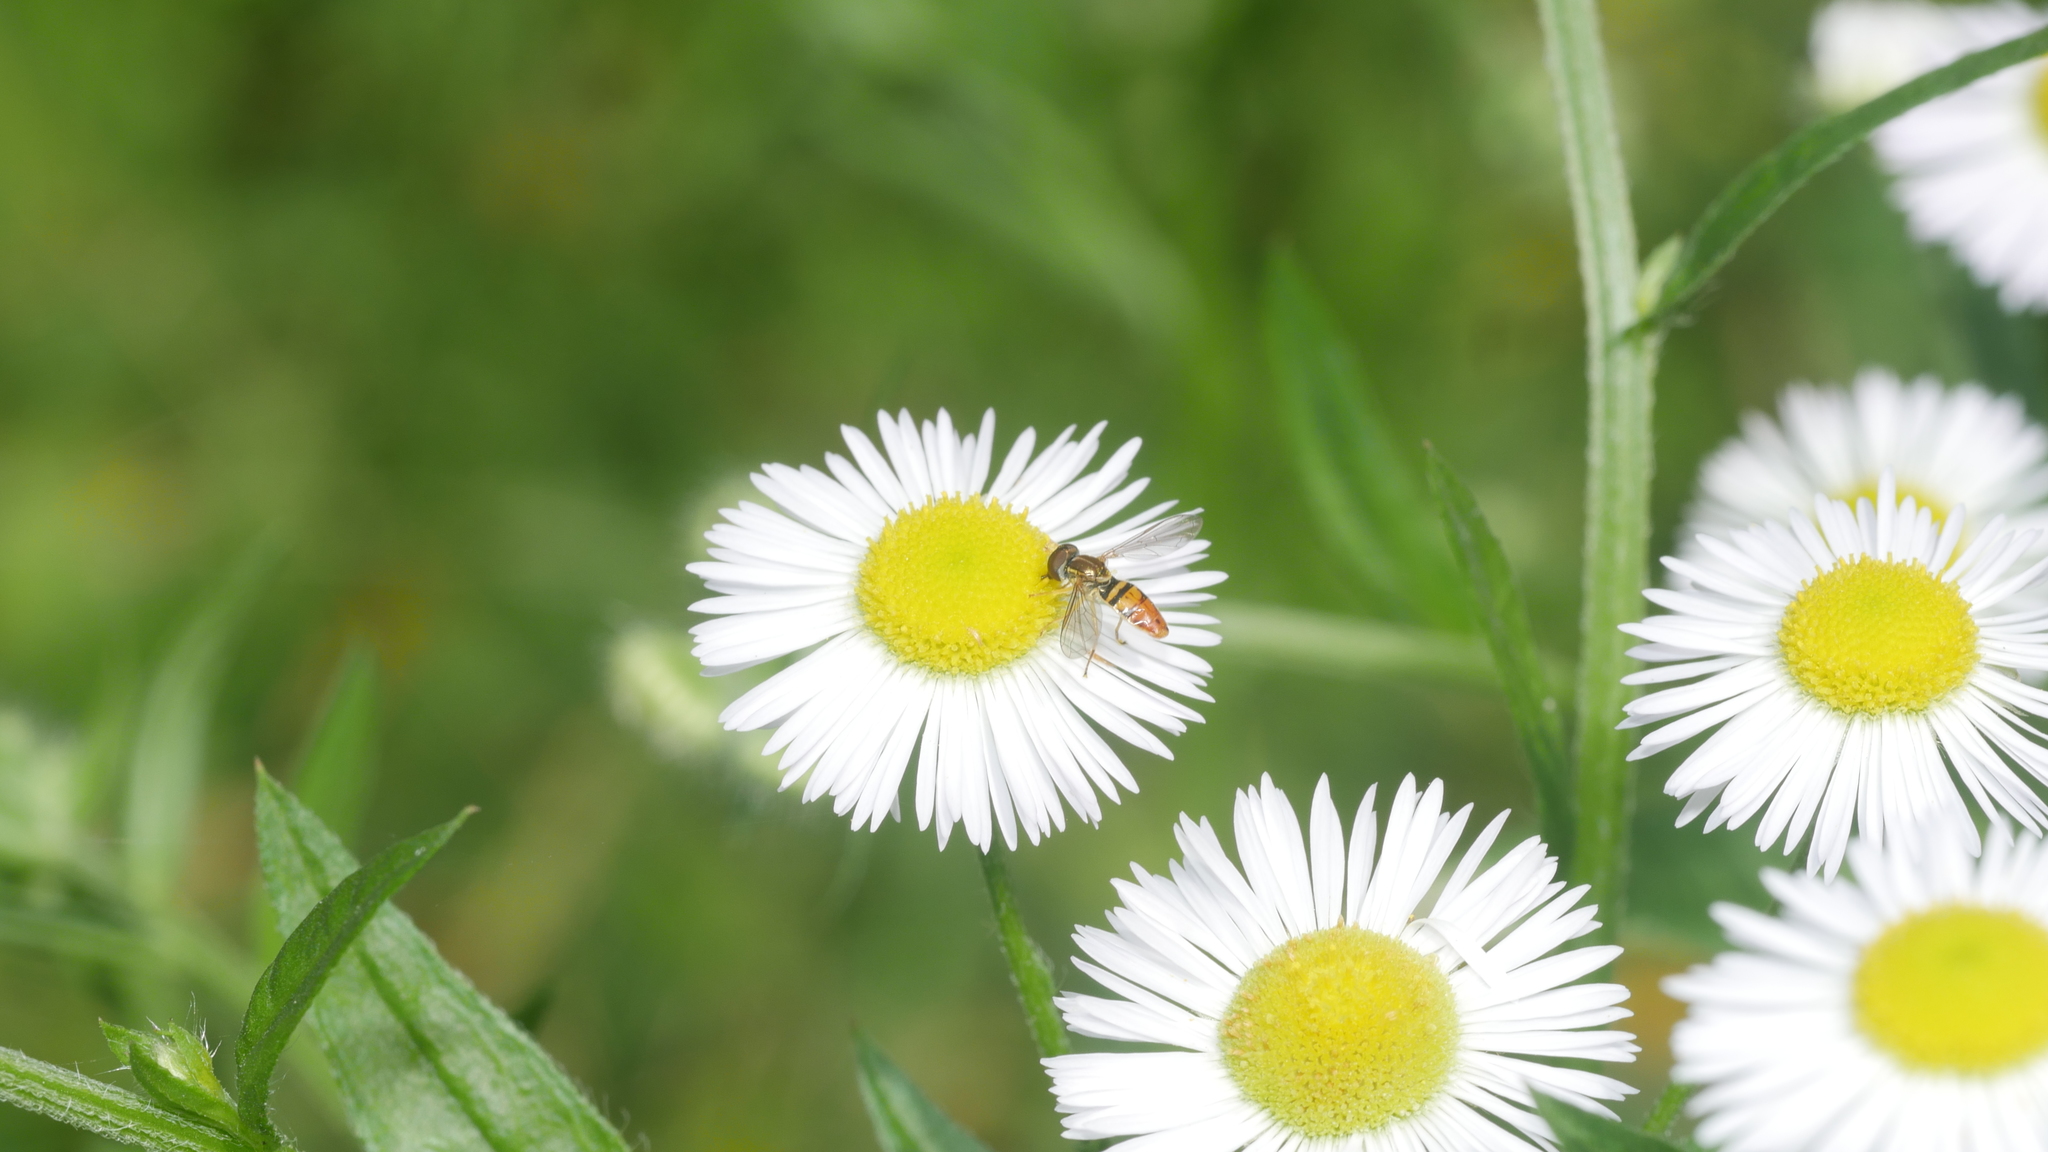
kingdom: Animalia
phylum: Arthropoda
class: Insecta
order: Diptera
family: Syrphidae
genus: Toxomerus
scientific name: Toxomerus marginatus
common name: Syrphid fly
